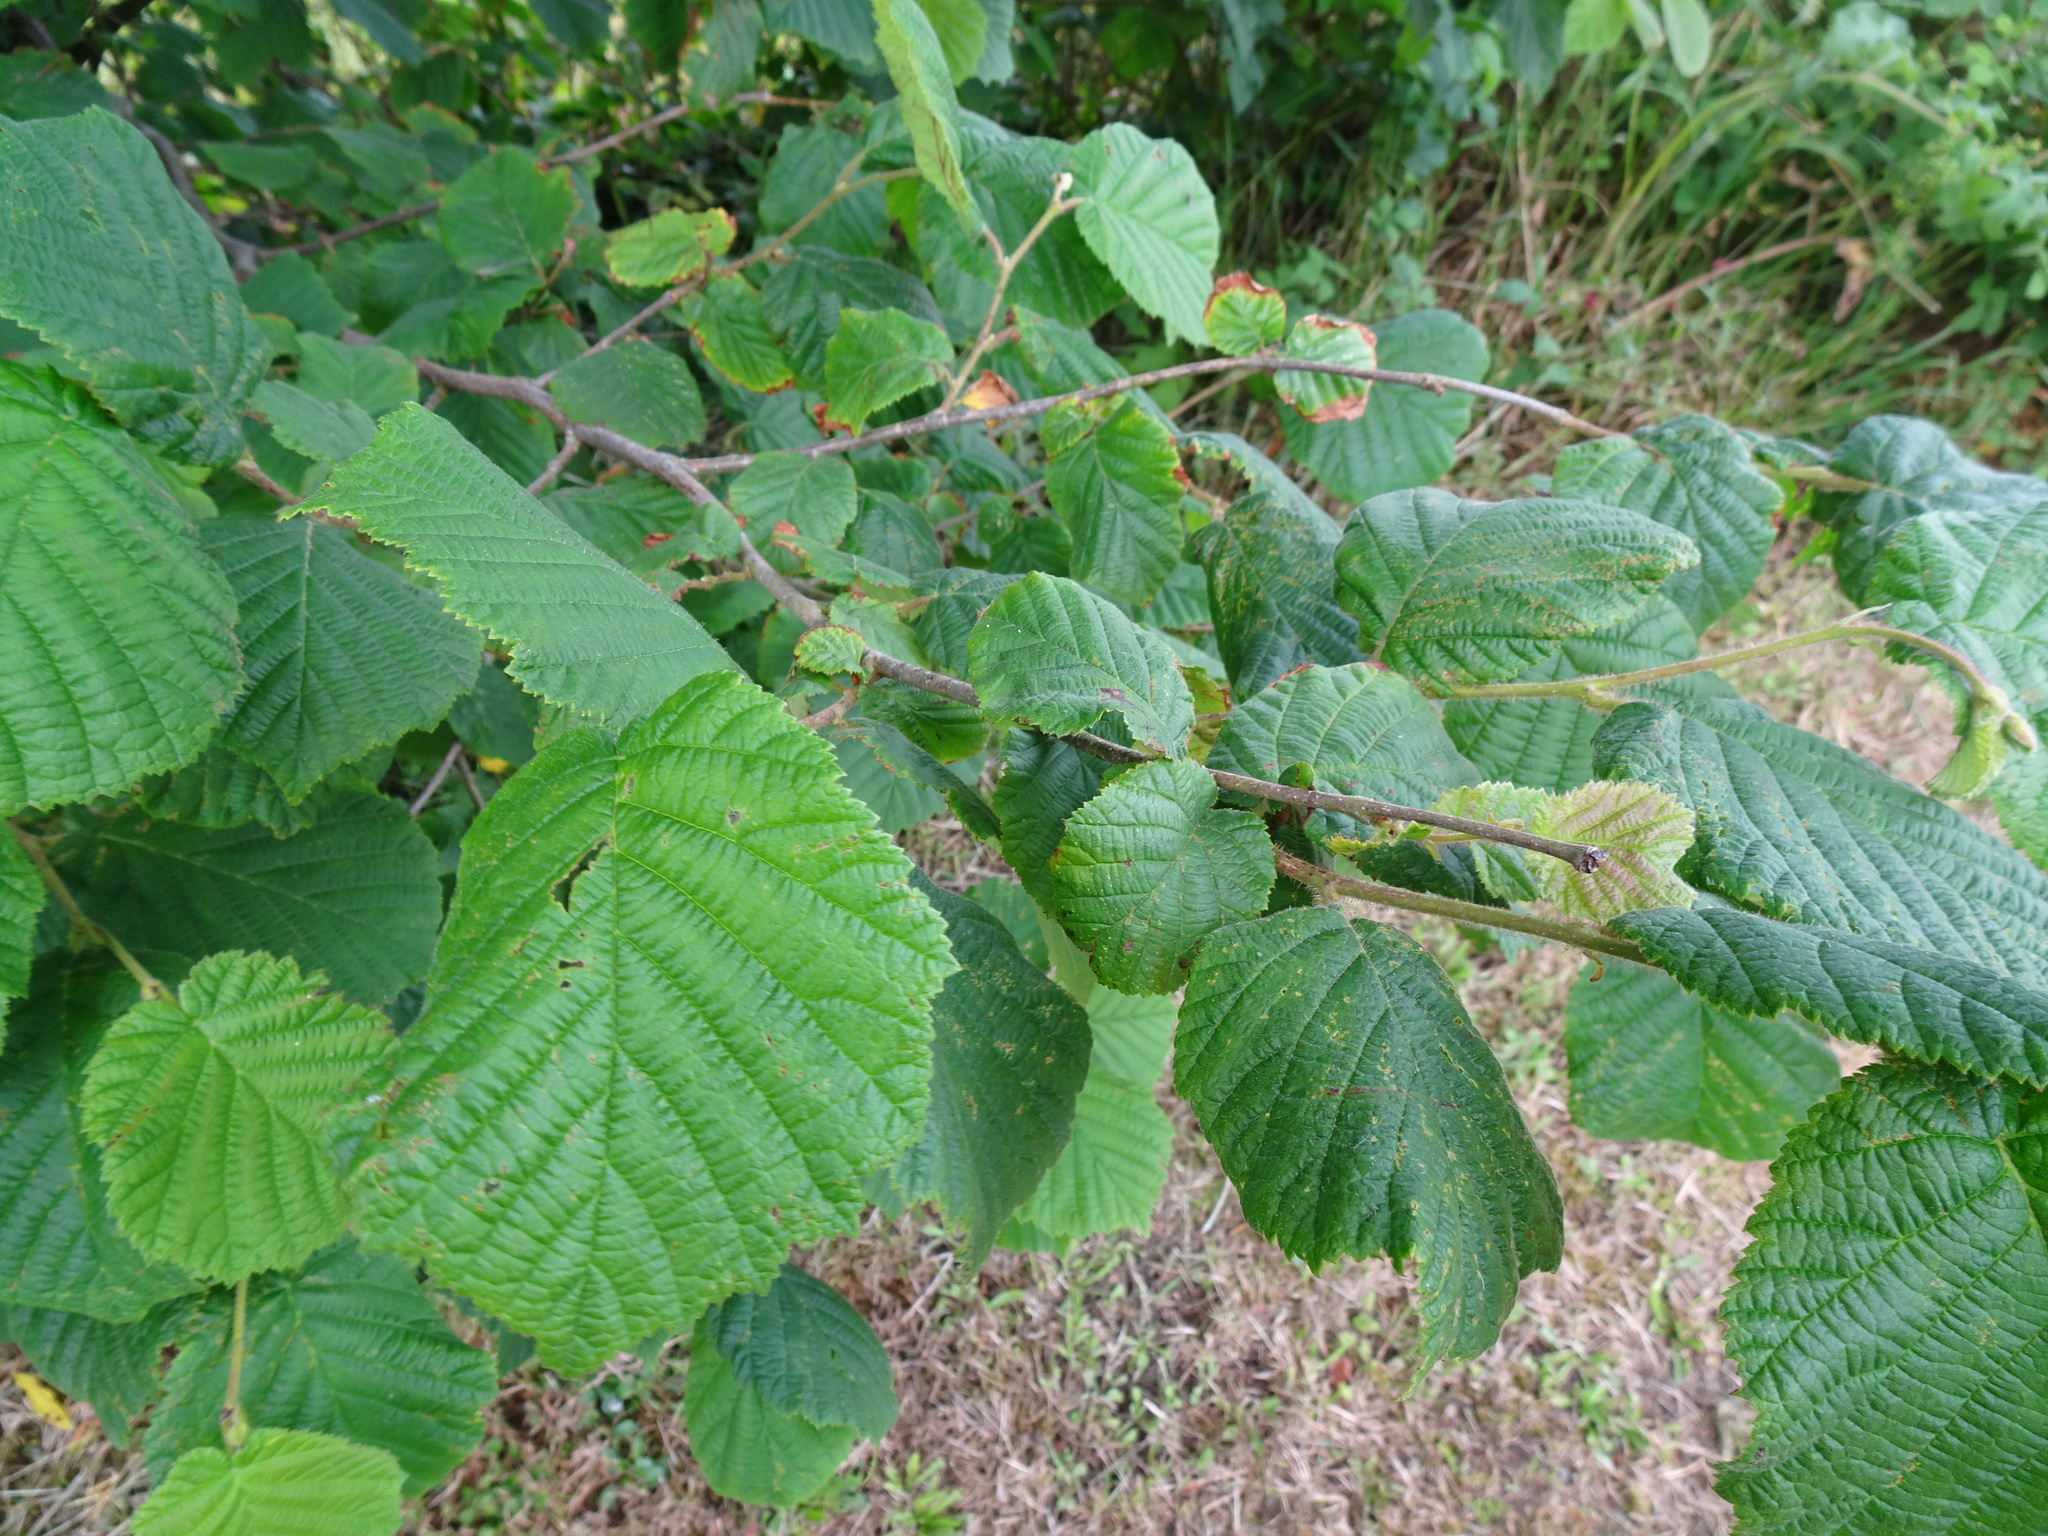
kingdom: Plantae
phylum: Tracheophyta
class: Magnoliopsida
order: Fagales
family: Betulaceae
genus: Corylus
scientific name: Corylus avellana
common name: European hazel
